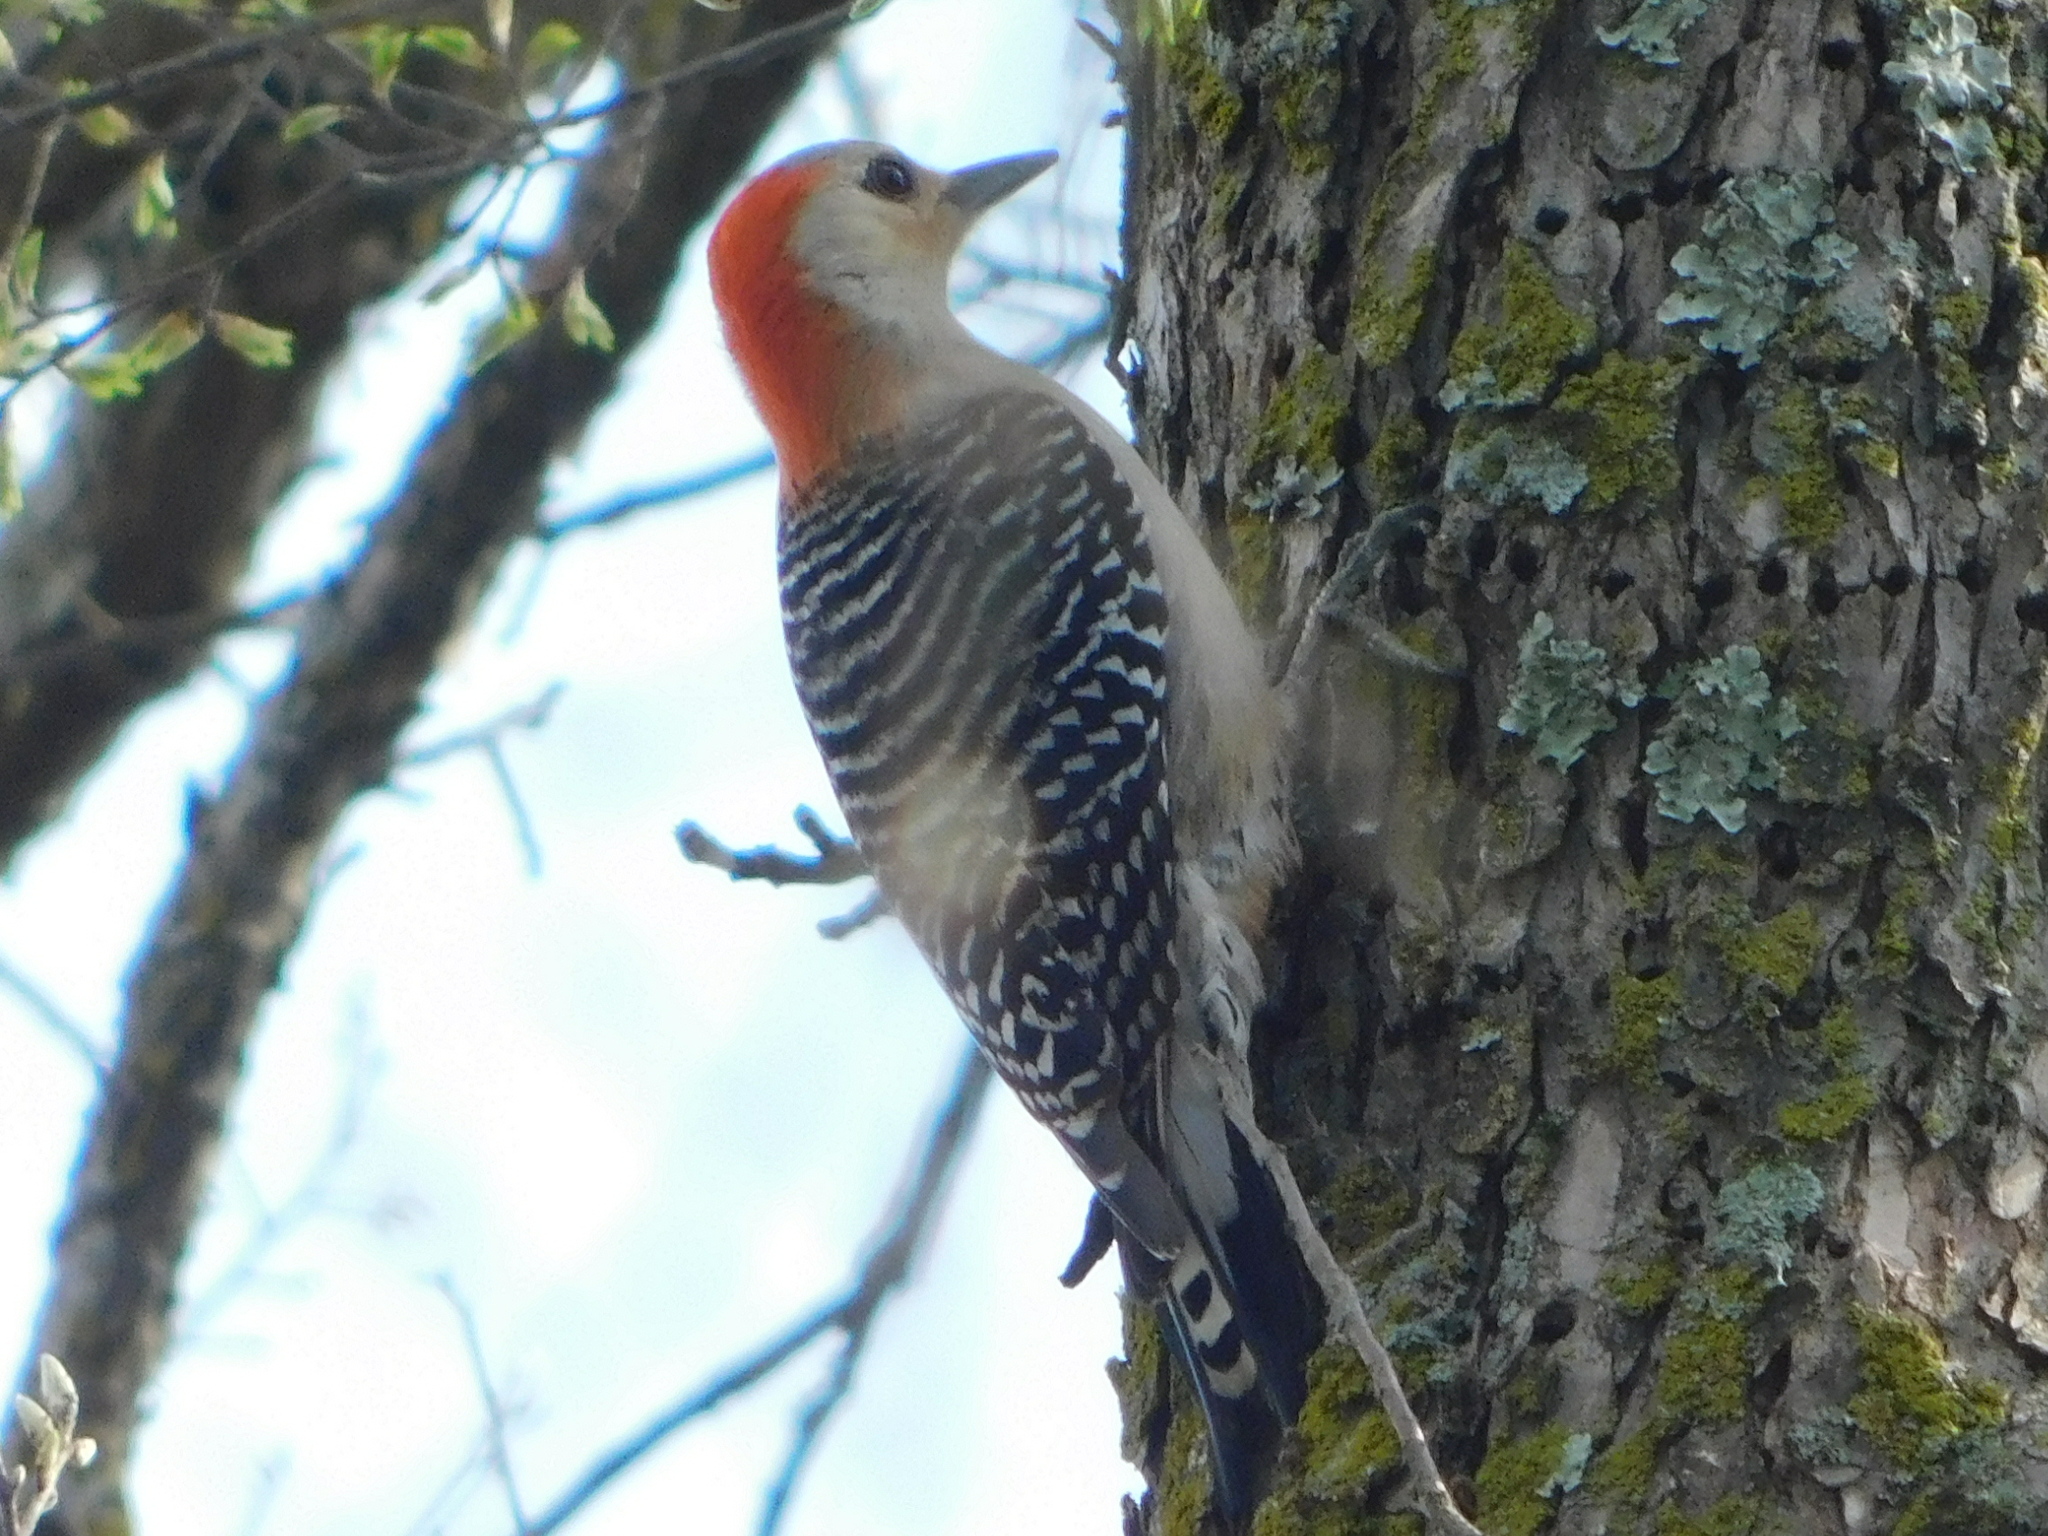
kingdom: Animalia
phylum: Chordata
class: Aves
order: Piciformes
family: Picidae
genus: Melanerpes
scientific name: Melanerpes carolinus
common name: Red-bellied woodpecker
